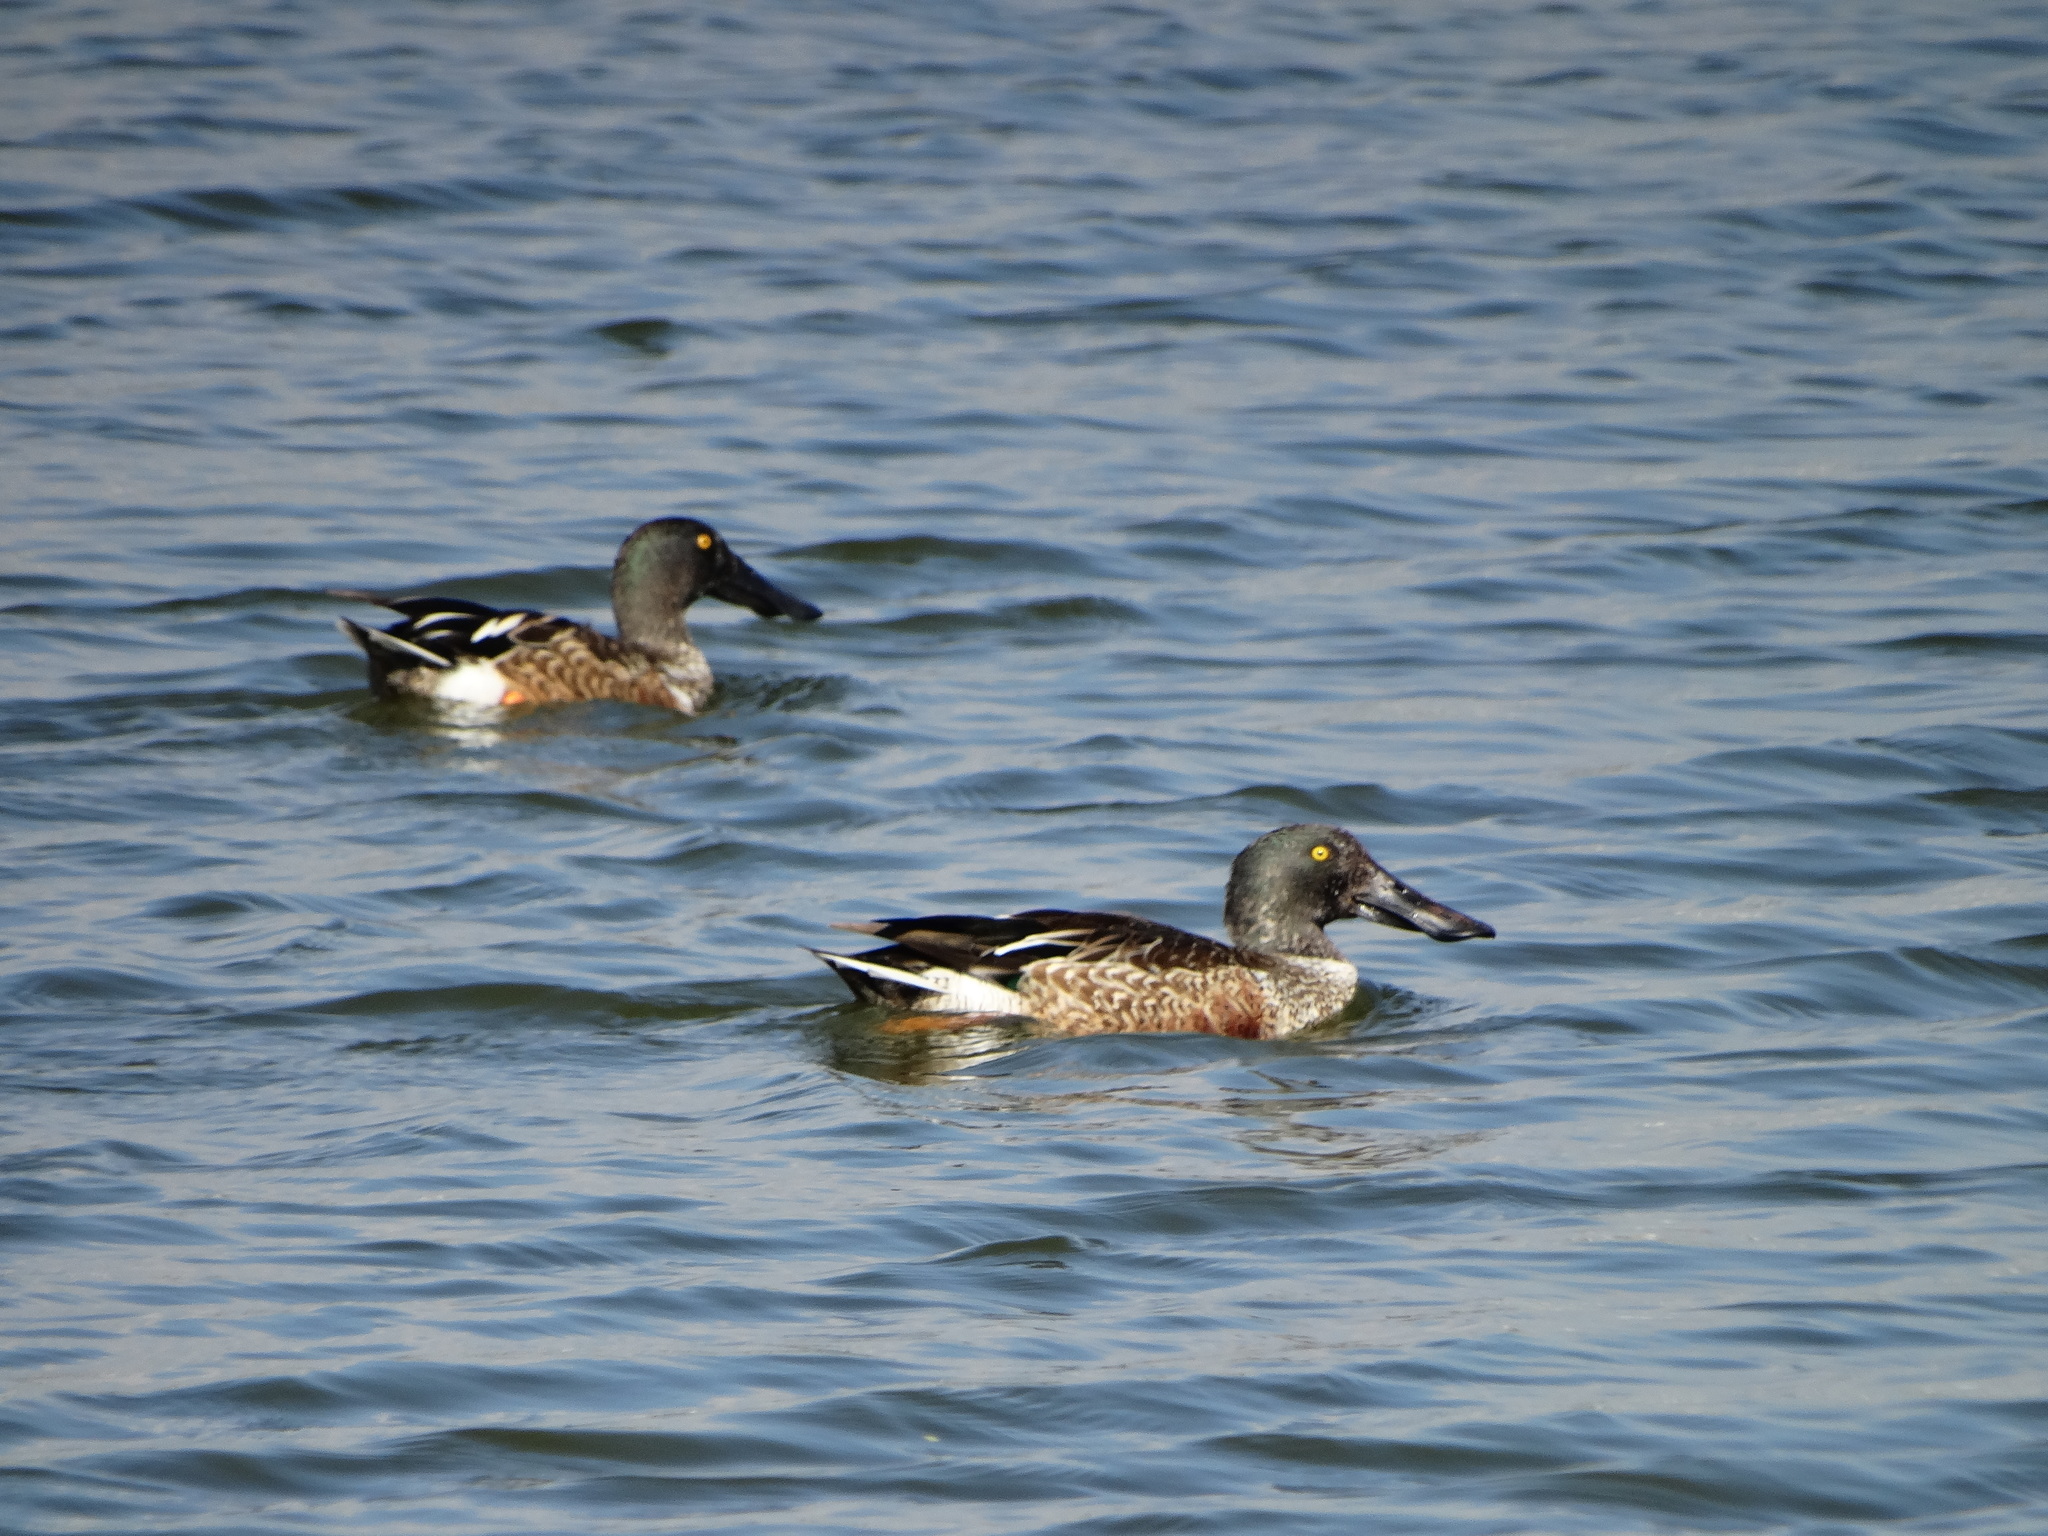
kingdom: Animalia
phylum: Chordata
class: Aves
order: Anseriformes
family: Anatidae
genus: Spatula
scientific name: Spatula clypeata
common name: Northern shoveler
